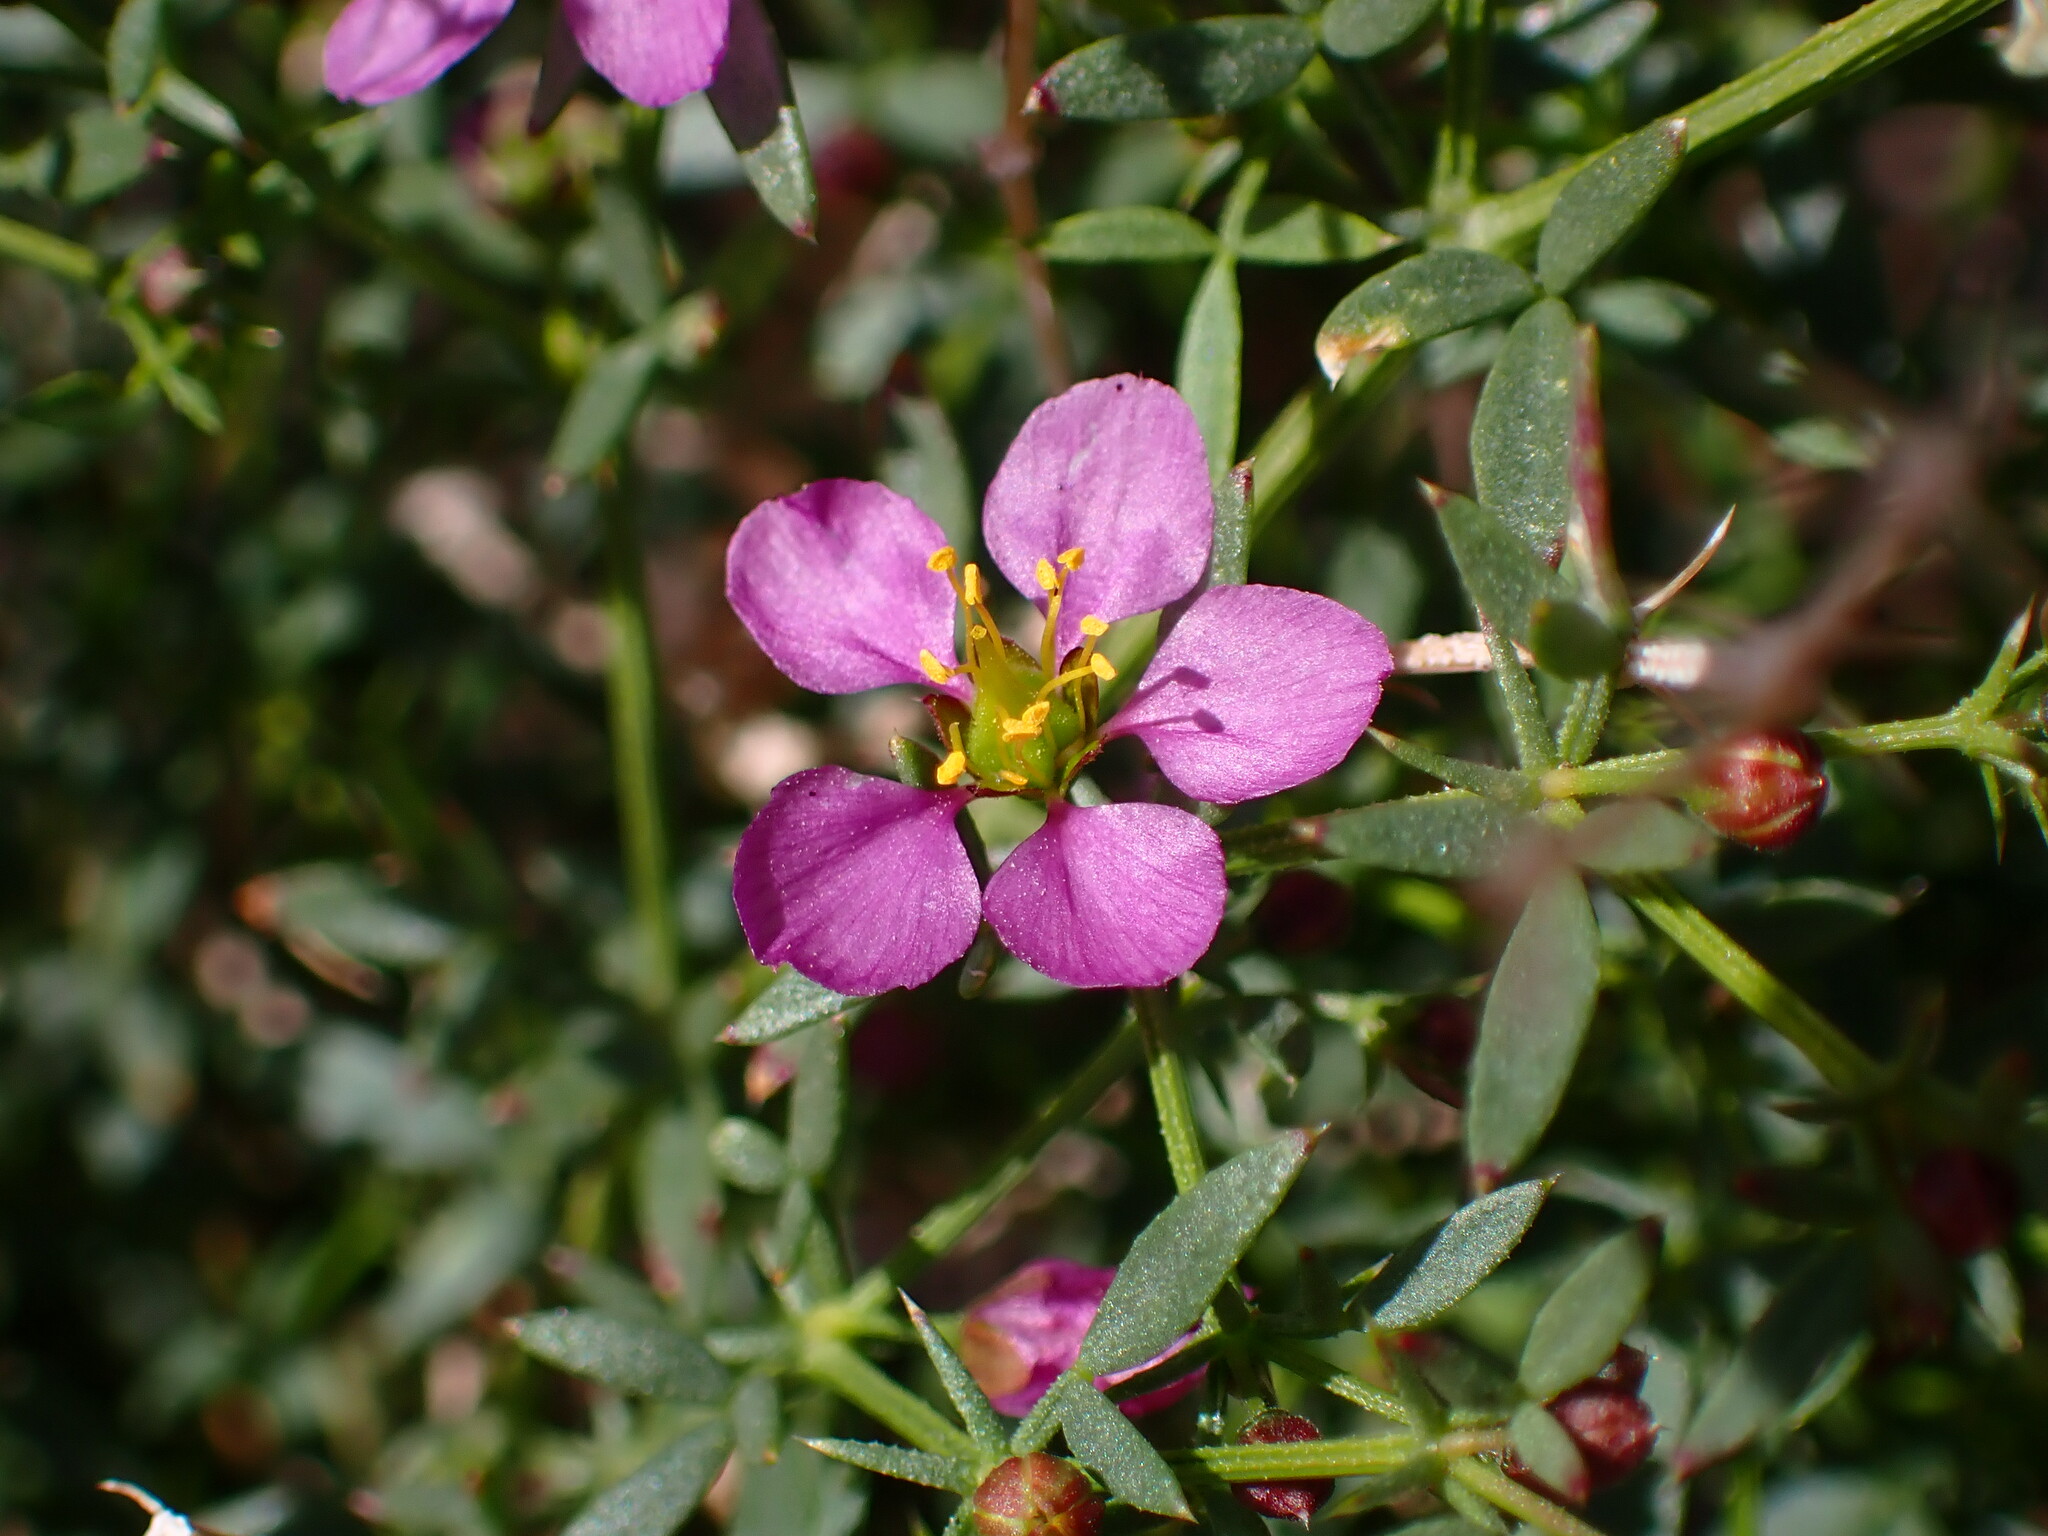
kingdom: Plantae
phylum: Tracheophyta
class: Magnoliopsida
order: Zygophyllales
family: Zygophyllaceae
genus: Fagonia
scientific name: Fagonia laevis
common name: California fagonbush
